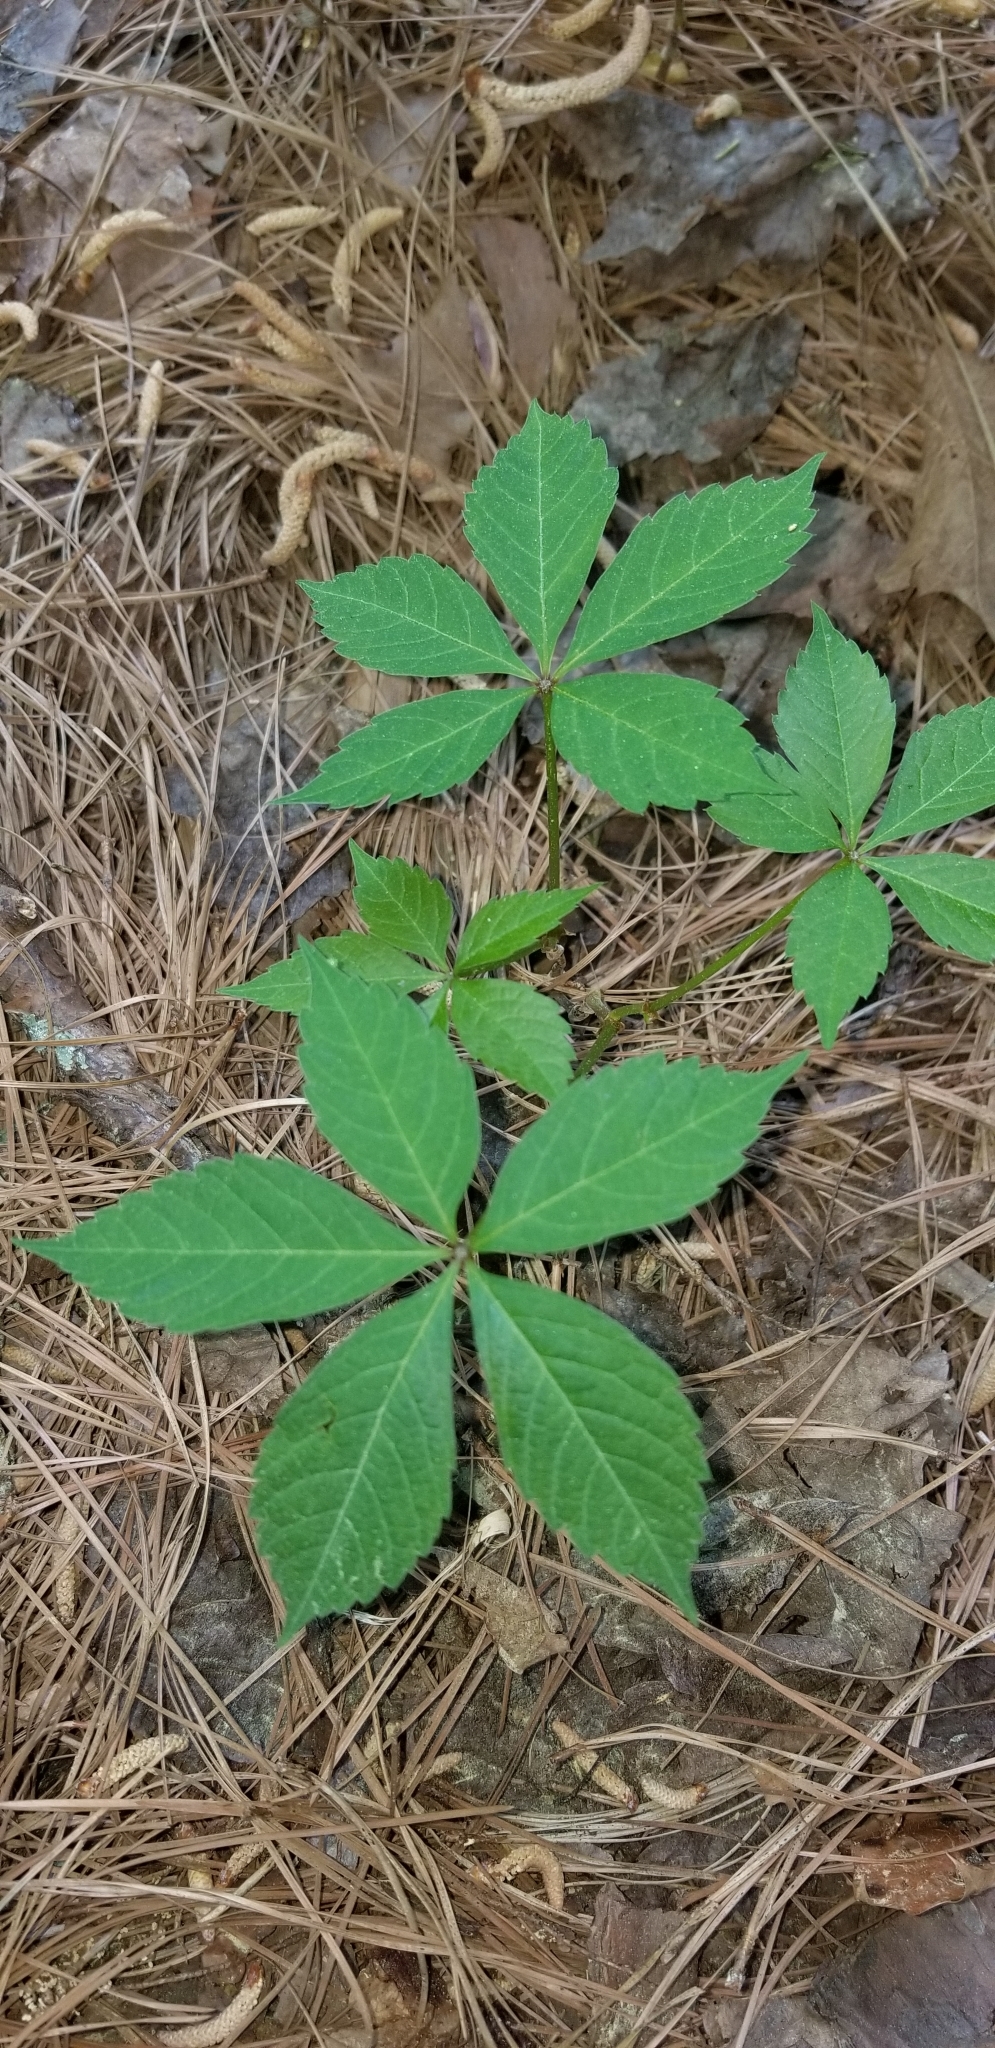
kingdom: Plantae
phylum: Tracheophyta
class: Magnoliopsida
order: Vitales
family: Vitaceae
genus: Parthenocissus
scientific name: Parthenocissus quinquefolia
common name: Virginia-creeper
